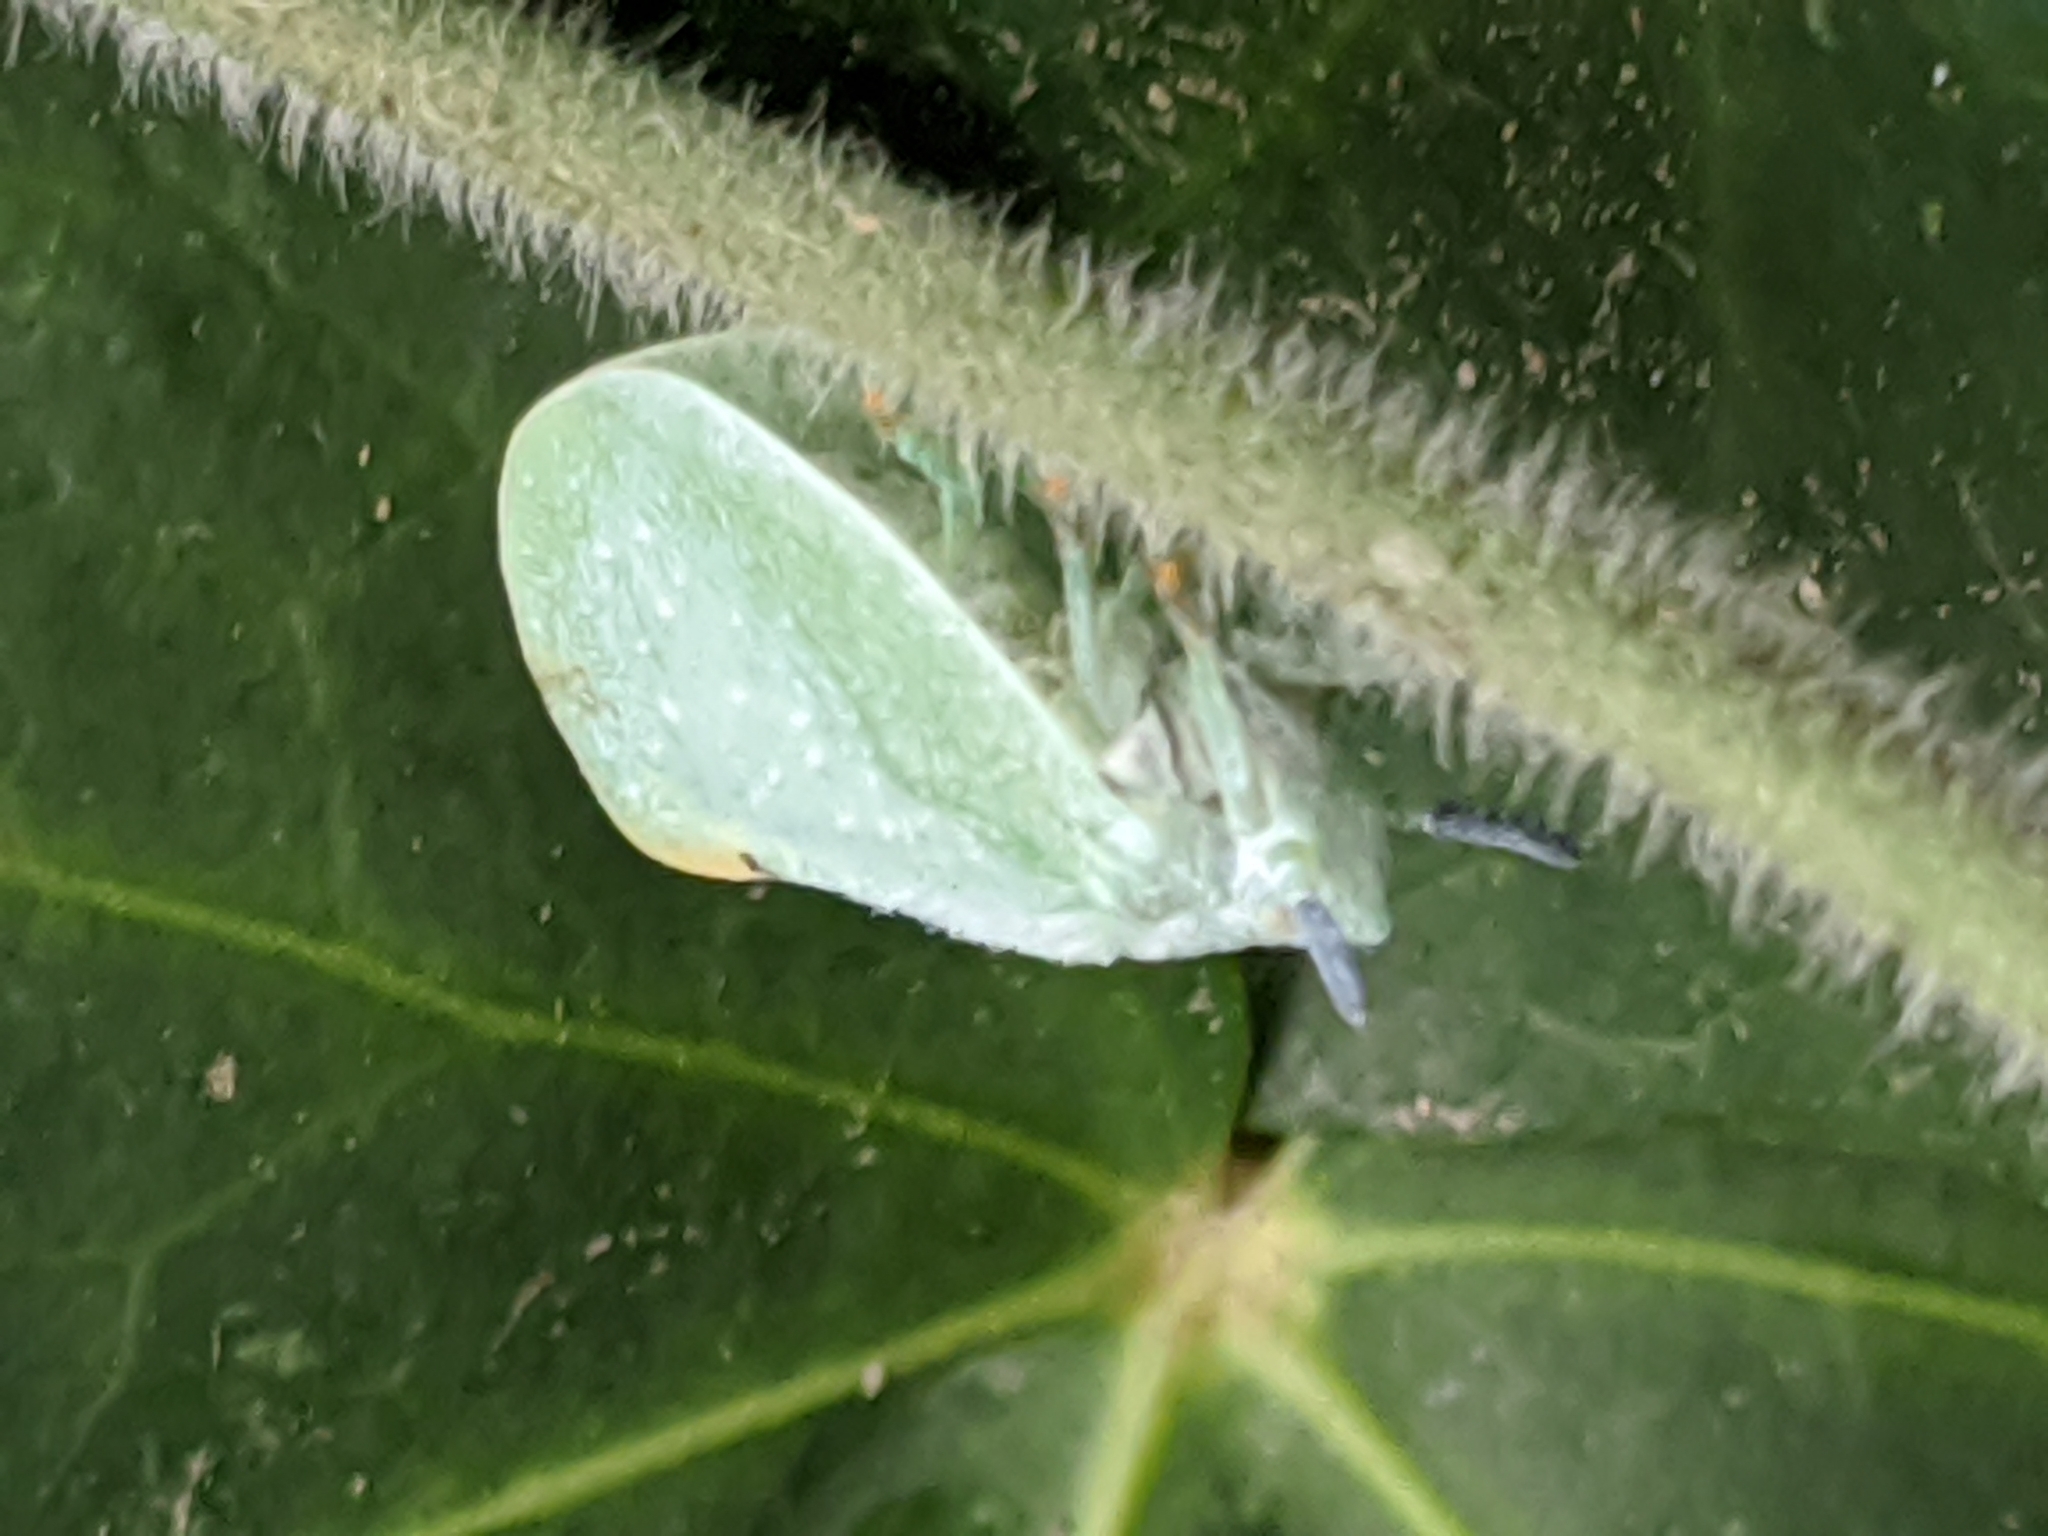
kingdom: Animalia
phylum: Arthropoda
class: Insecta
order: Hemiptera
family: Flatidae
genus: Dalapax
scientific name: Dalapax postica
